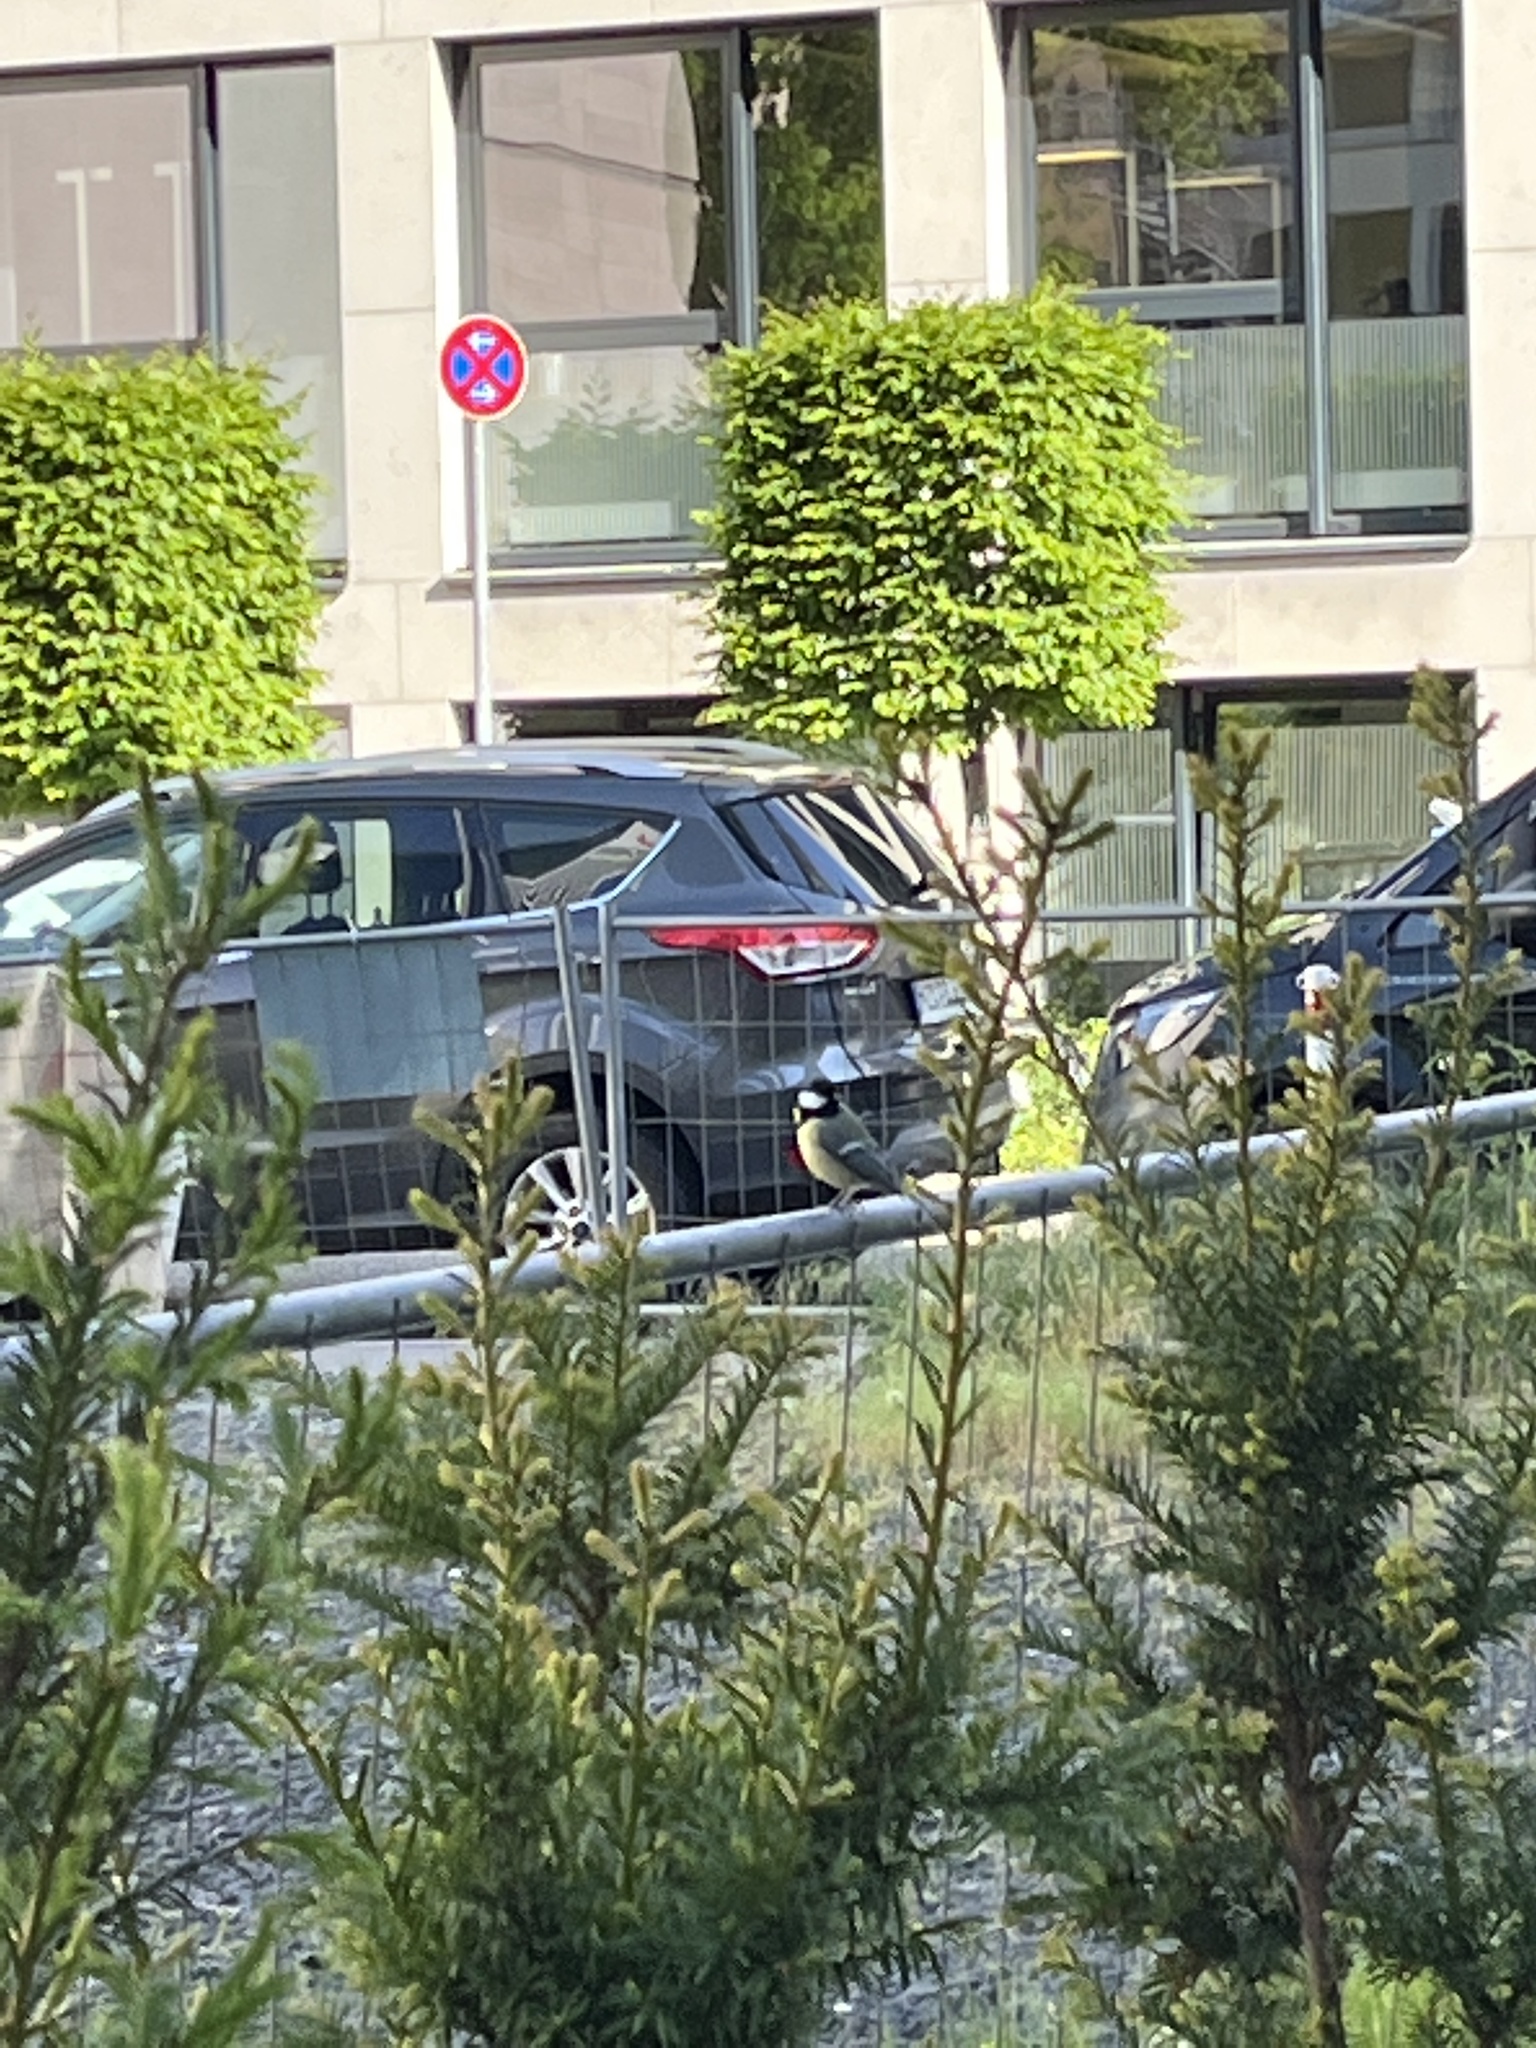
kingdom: Animalia
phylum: Chordata
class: Aves
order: Passeriformes
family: Paridae
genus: Parus
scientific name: Parus major
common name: Great tit
